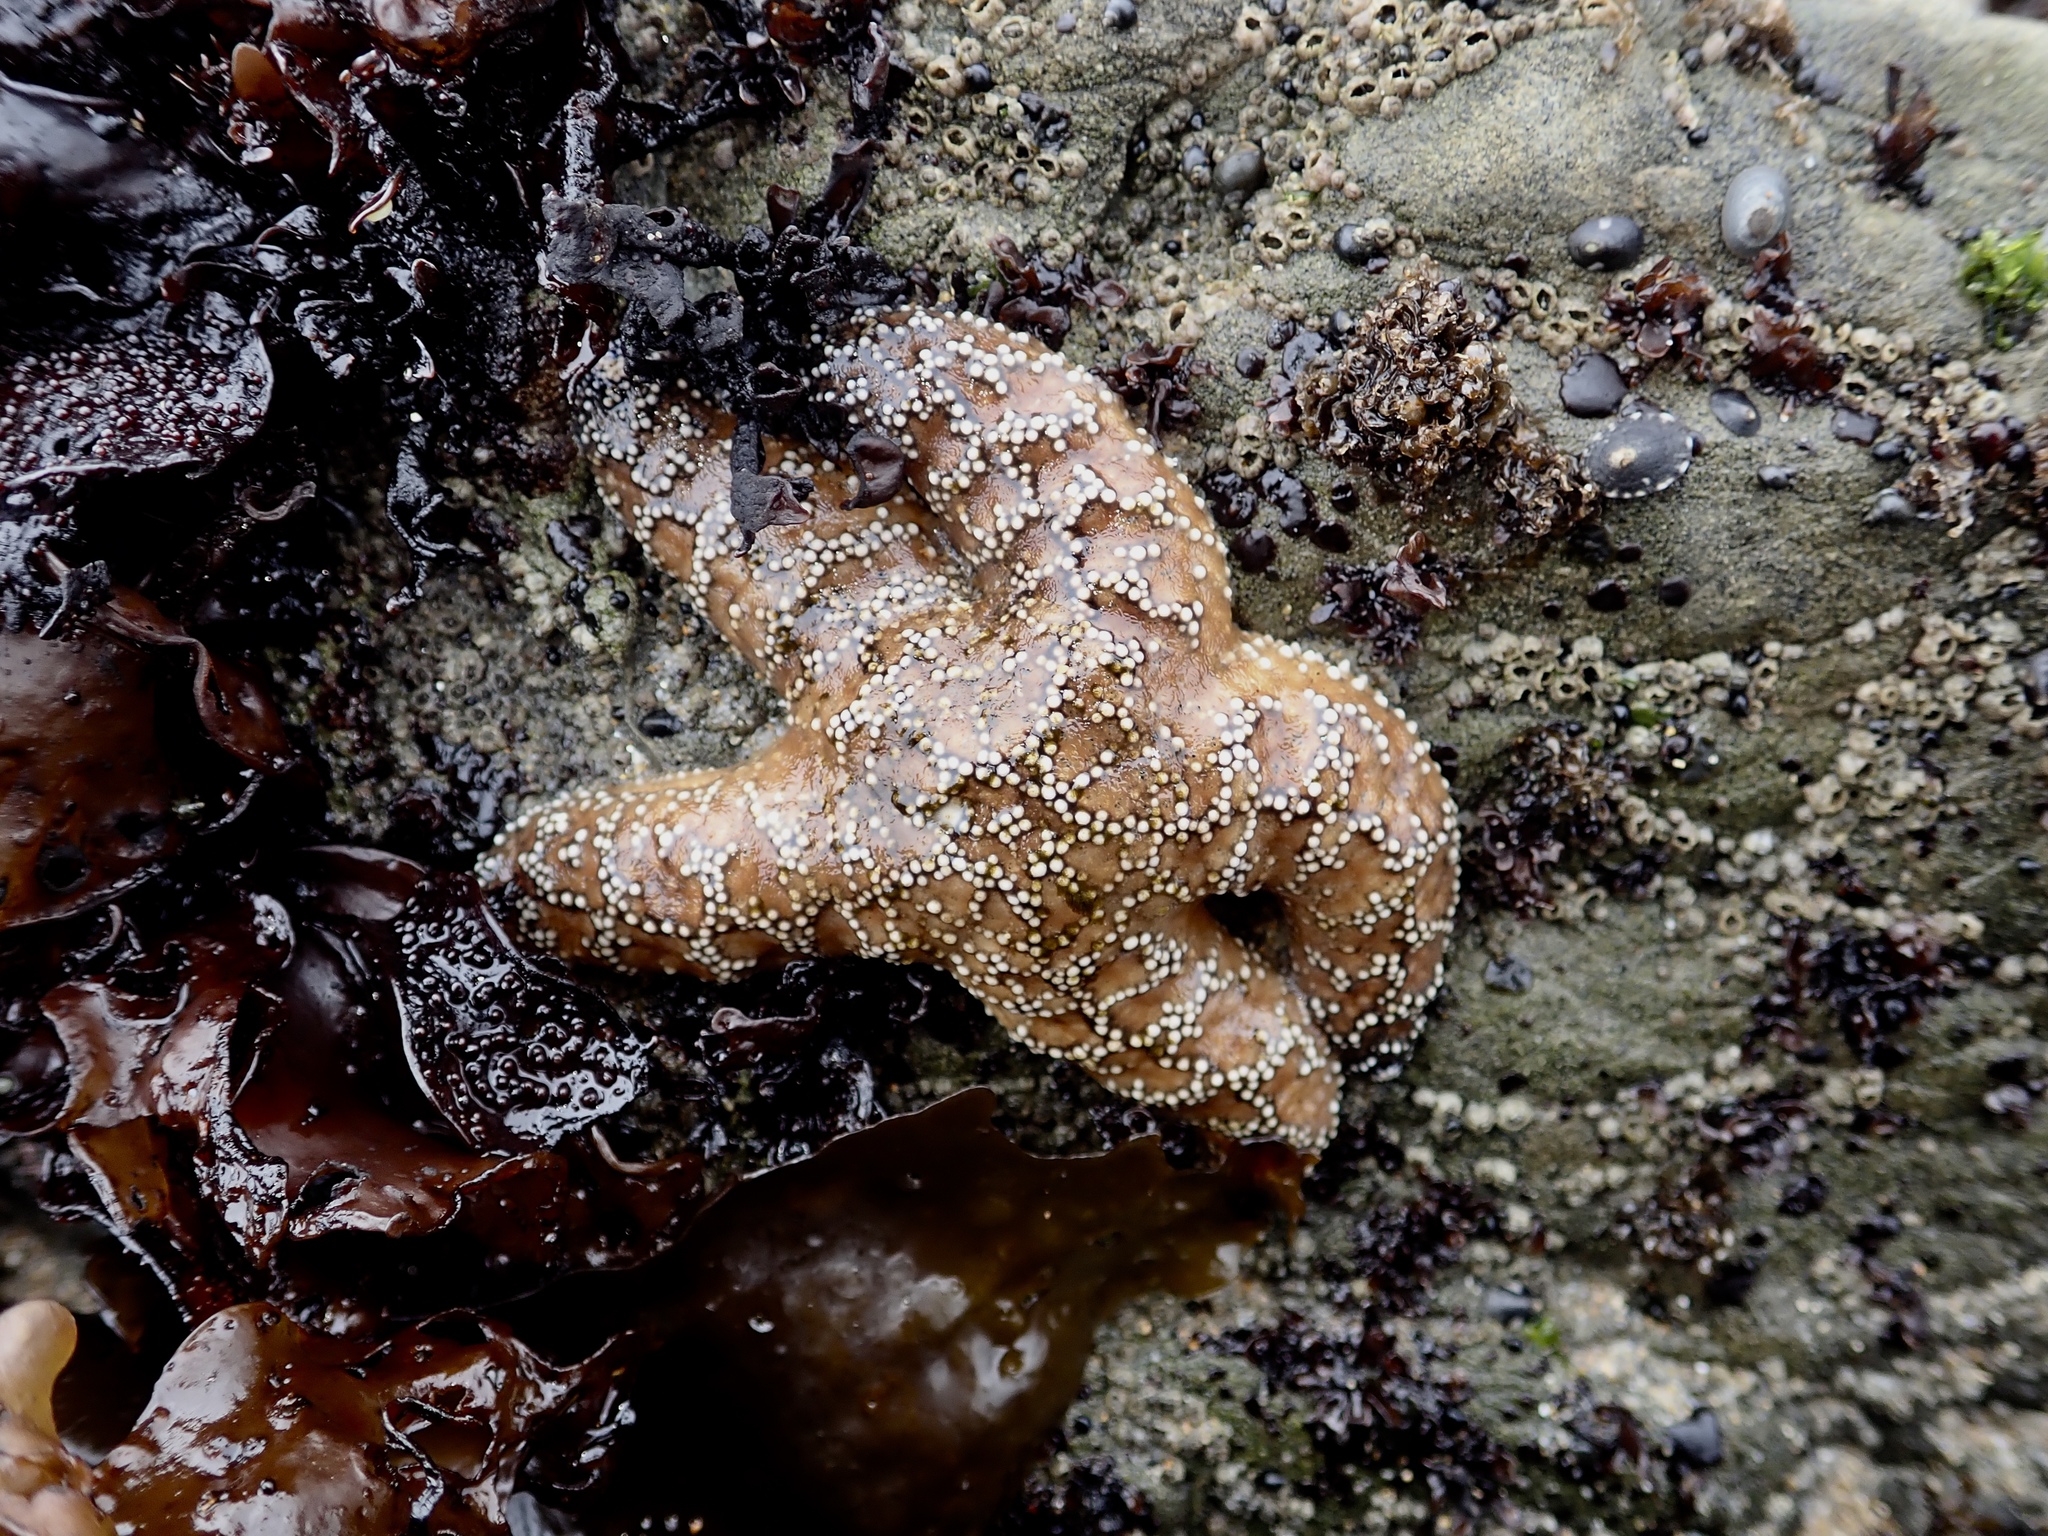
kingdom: Animalia
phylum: Echinodermata
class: Asteroidea
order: Forcipulatida
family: Asteriidae
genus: Pisaster
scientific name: Pisaster ochraceus
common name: Ochre stars
